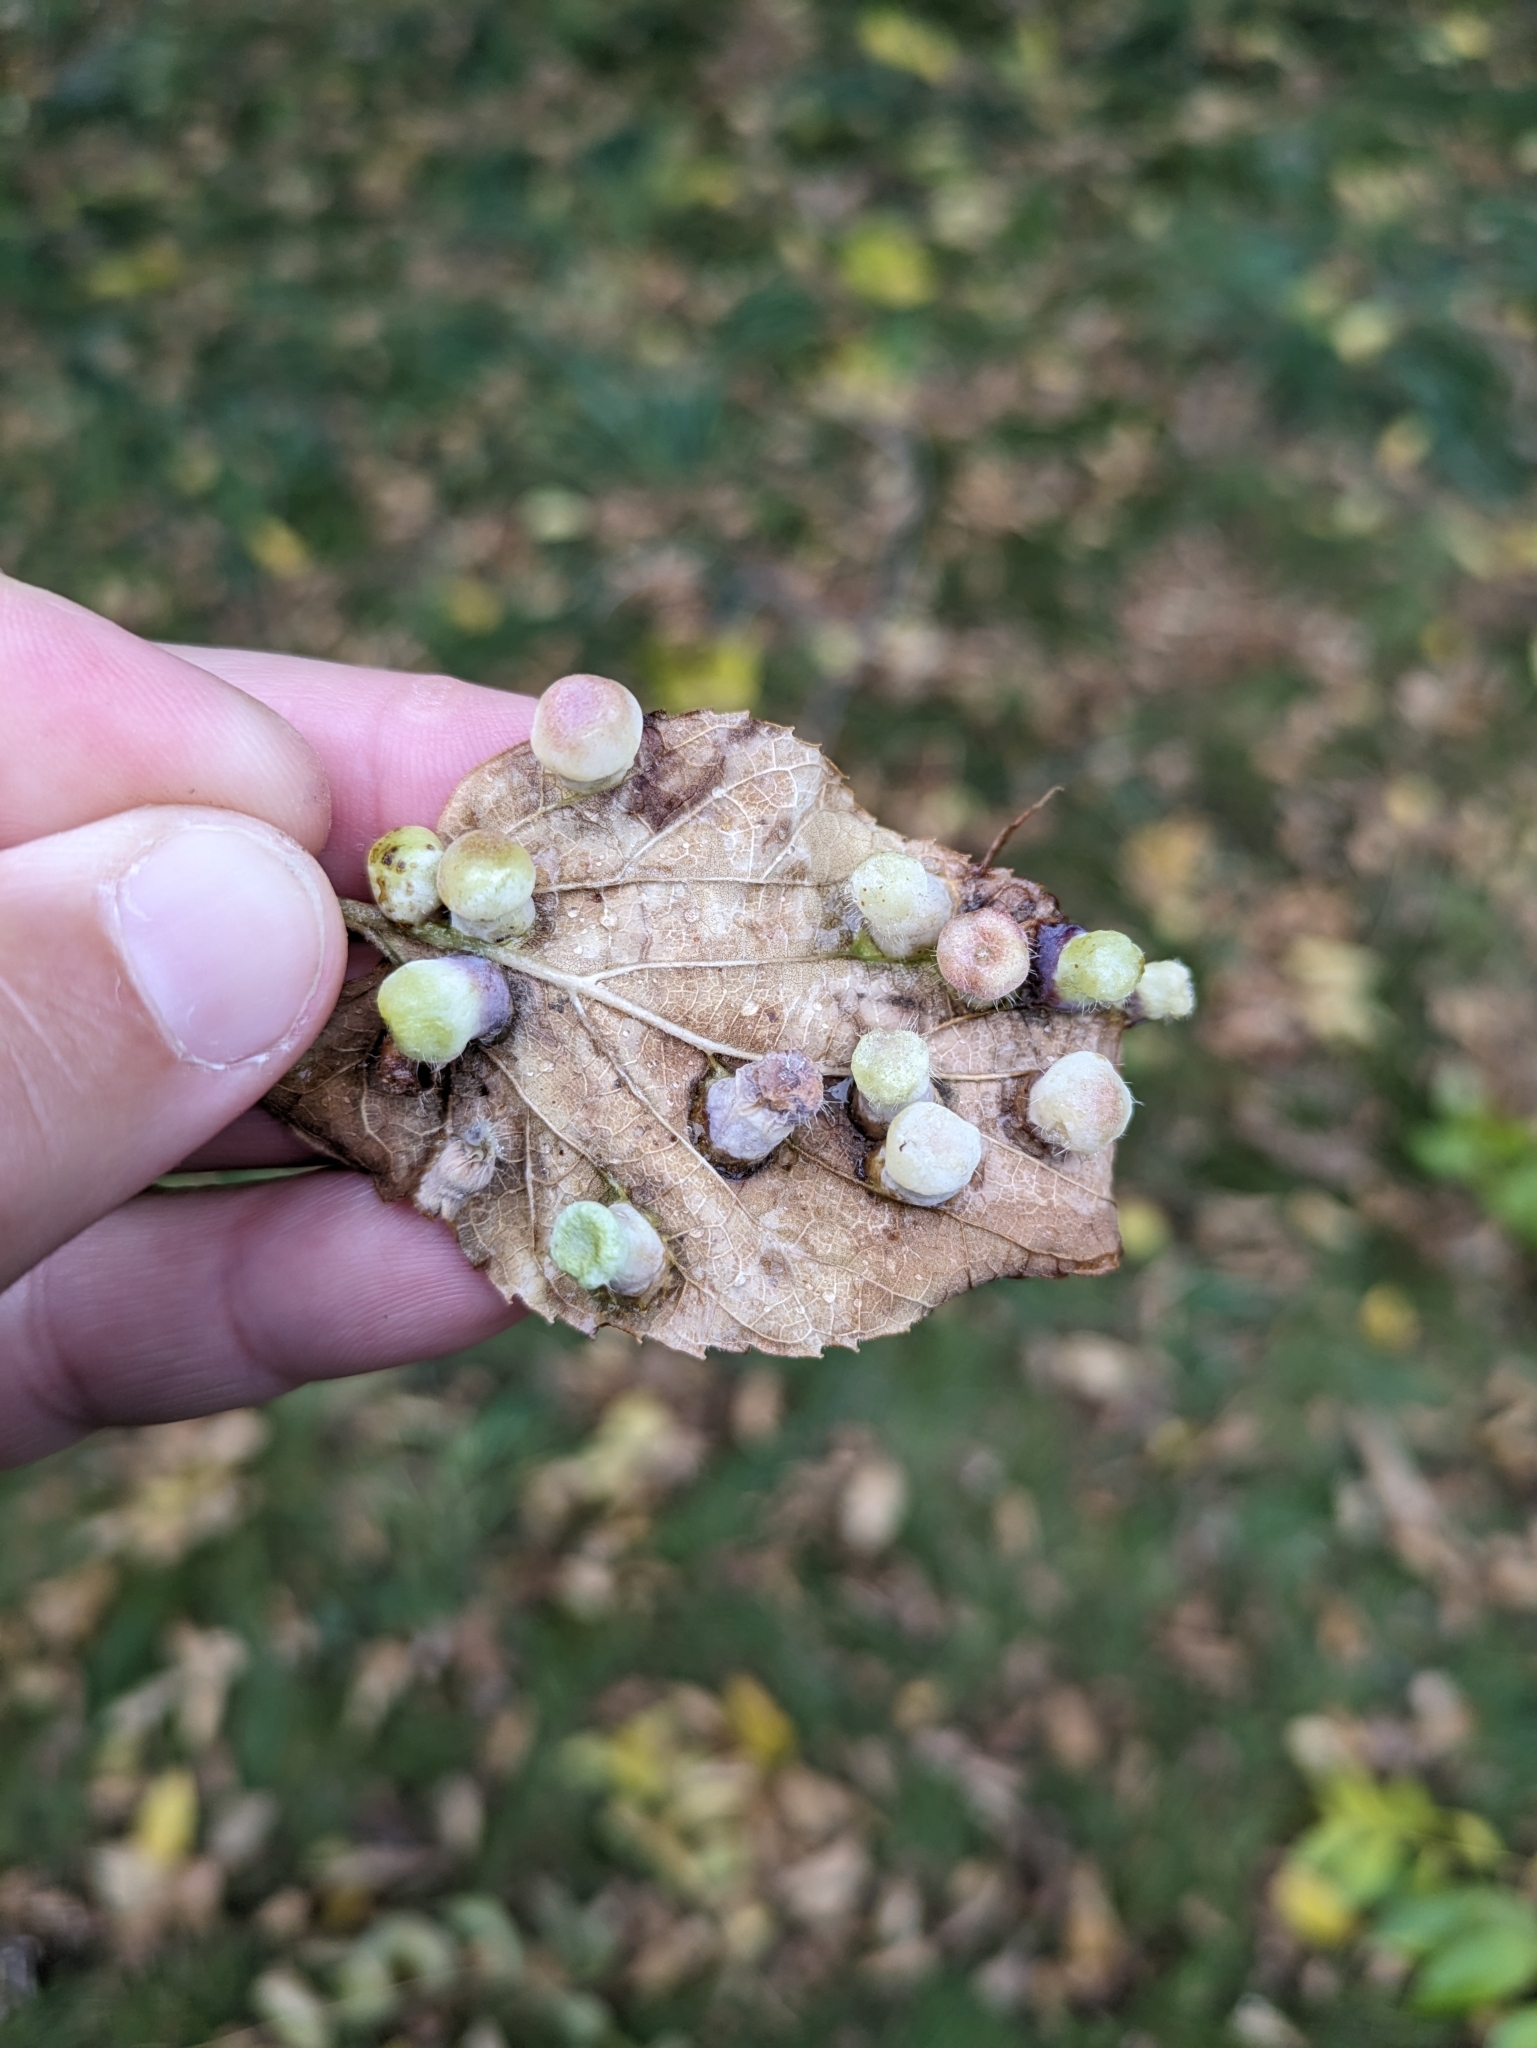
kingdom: Animalia
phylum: Arthropoda
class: Insecta
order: Hemiptera
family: Aphalaridae
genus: Pachypsylla
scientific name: Pachypsylla celtidismamma
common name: Hackberry nipplegall psyllid
